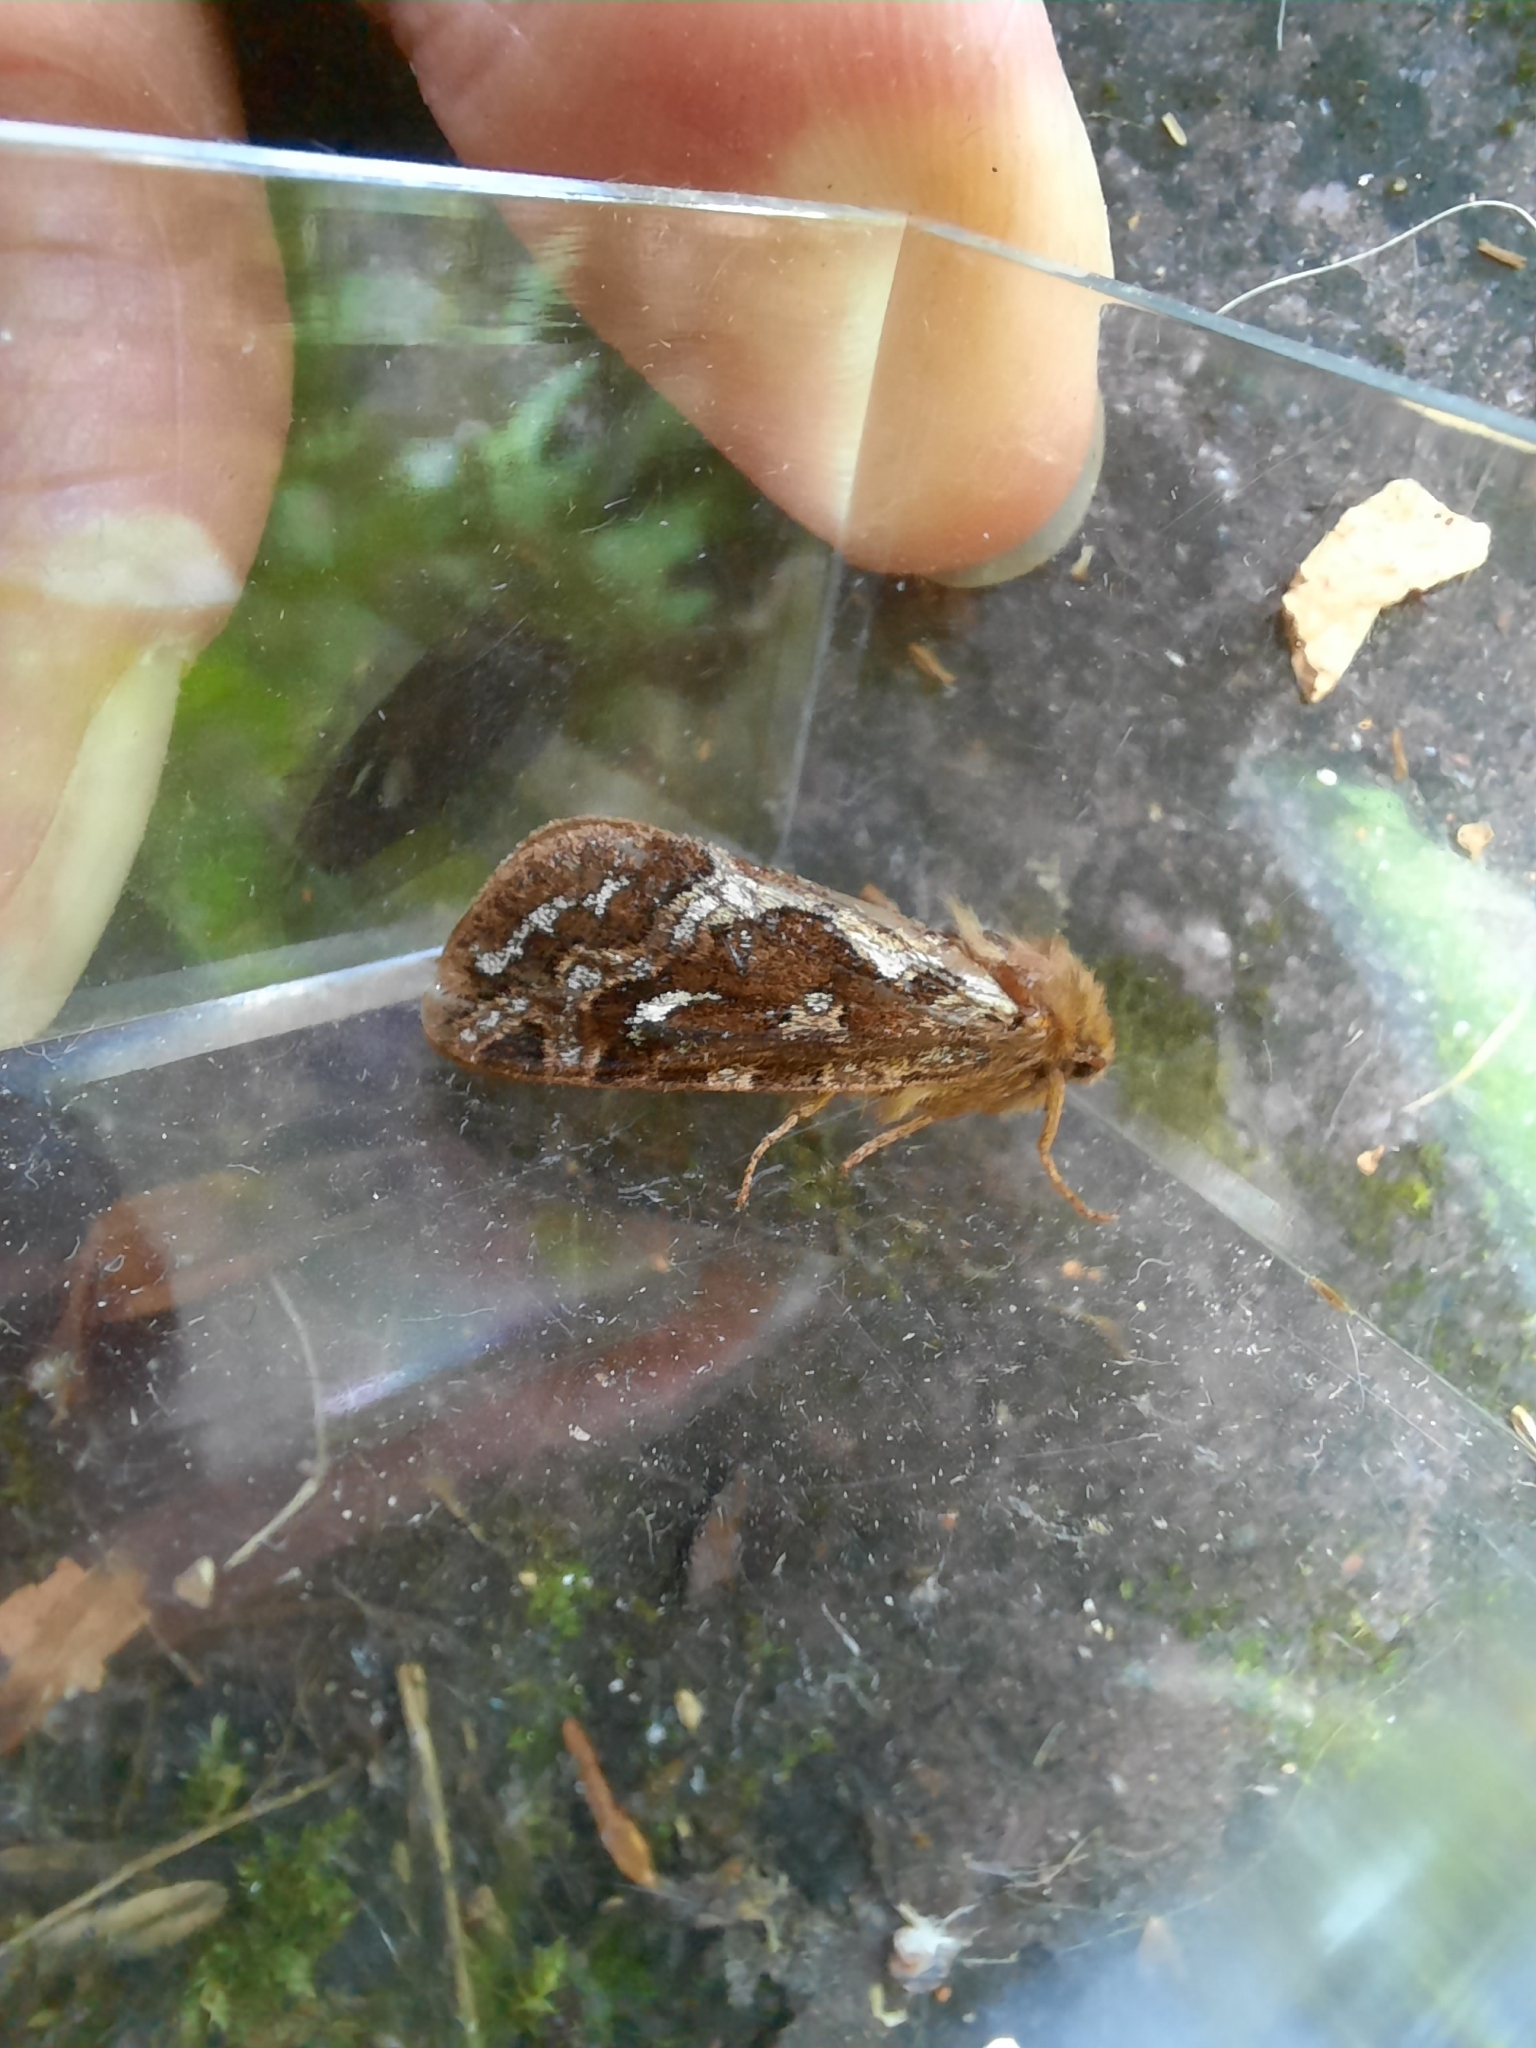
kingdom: Animalia
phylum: Arthropoda
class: Insecta
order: Lepidoptera
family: Hepialidae
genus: Korscheltellus
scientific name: Korscheltellus fusconebulosus
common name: Map-winged swift
